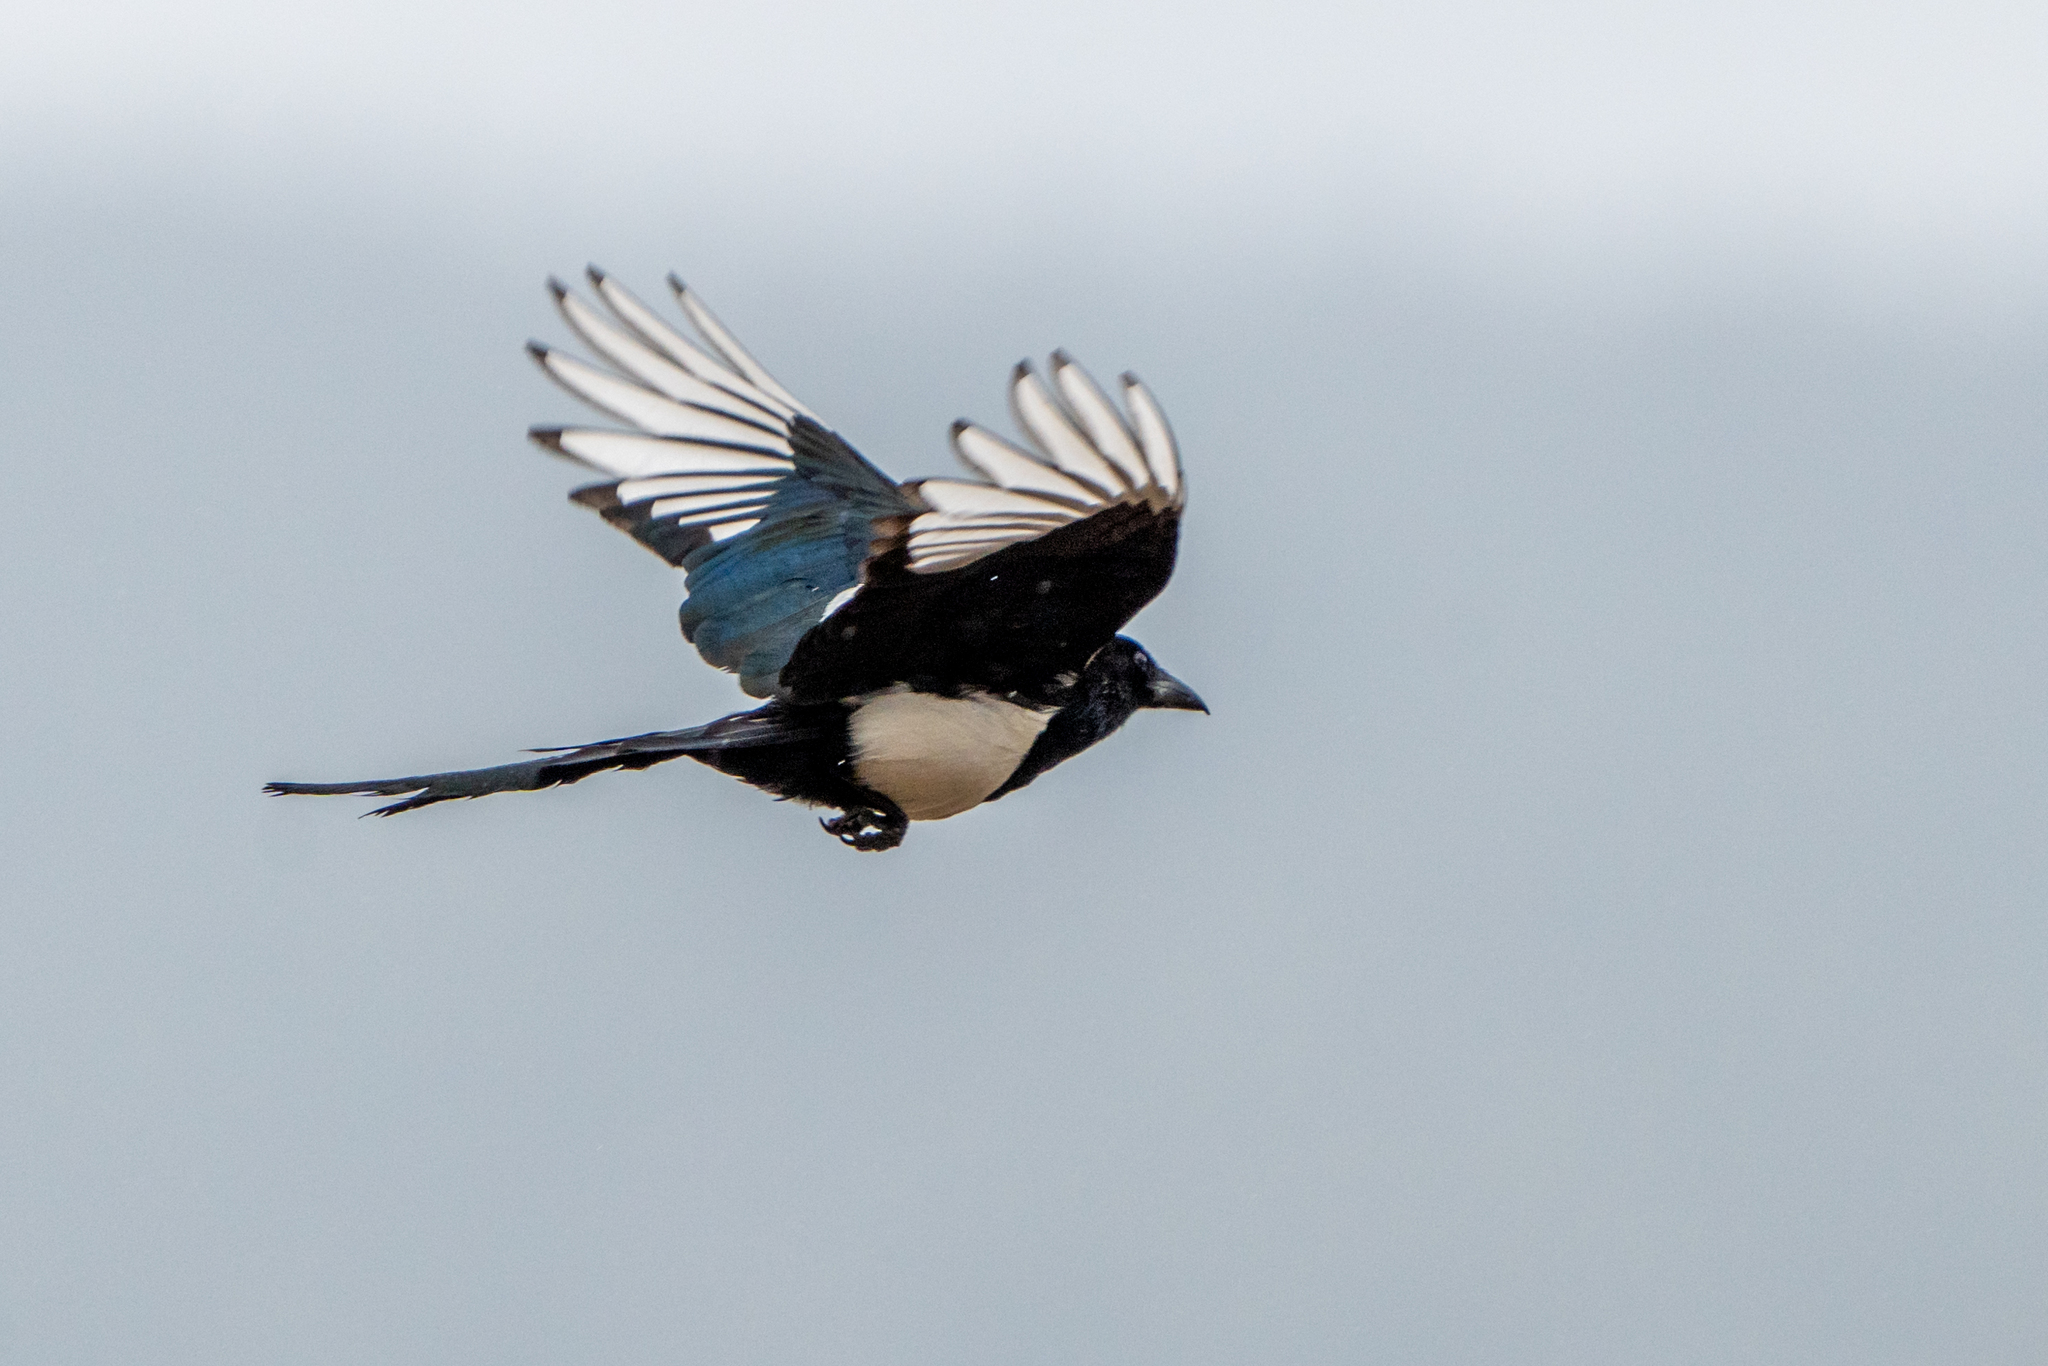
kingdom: Animalia
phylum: Chordata
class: Aves
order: Passeriformes
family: Corvidae
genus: Pica
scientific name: Pica hudsonia
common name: Black-billed magpie
